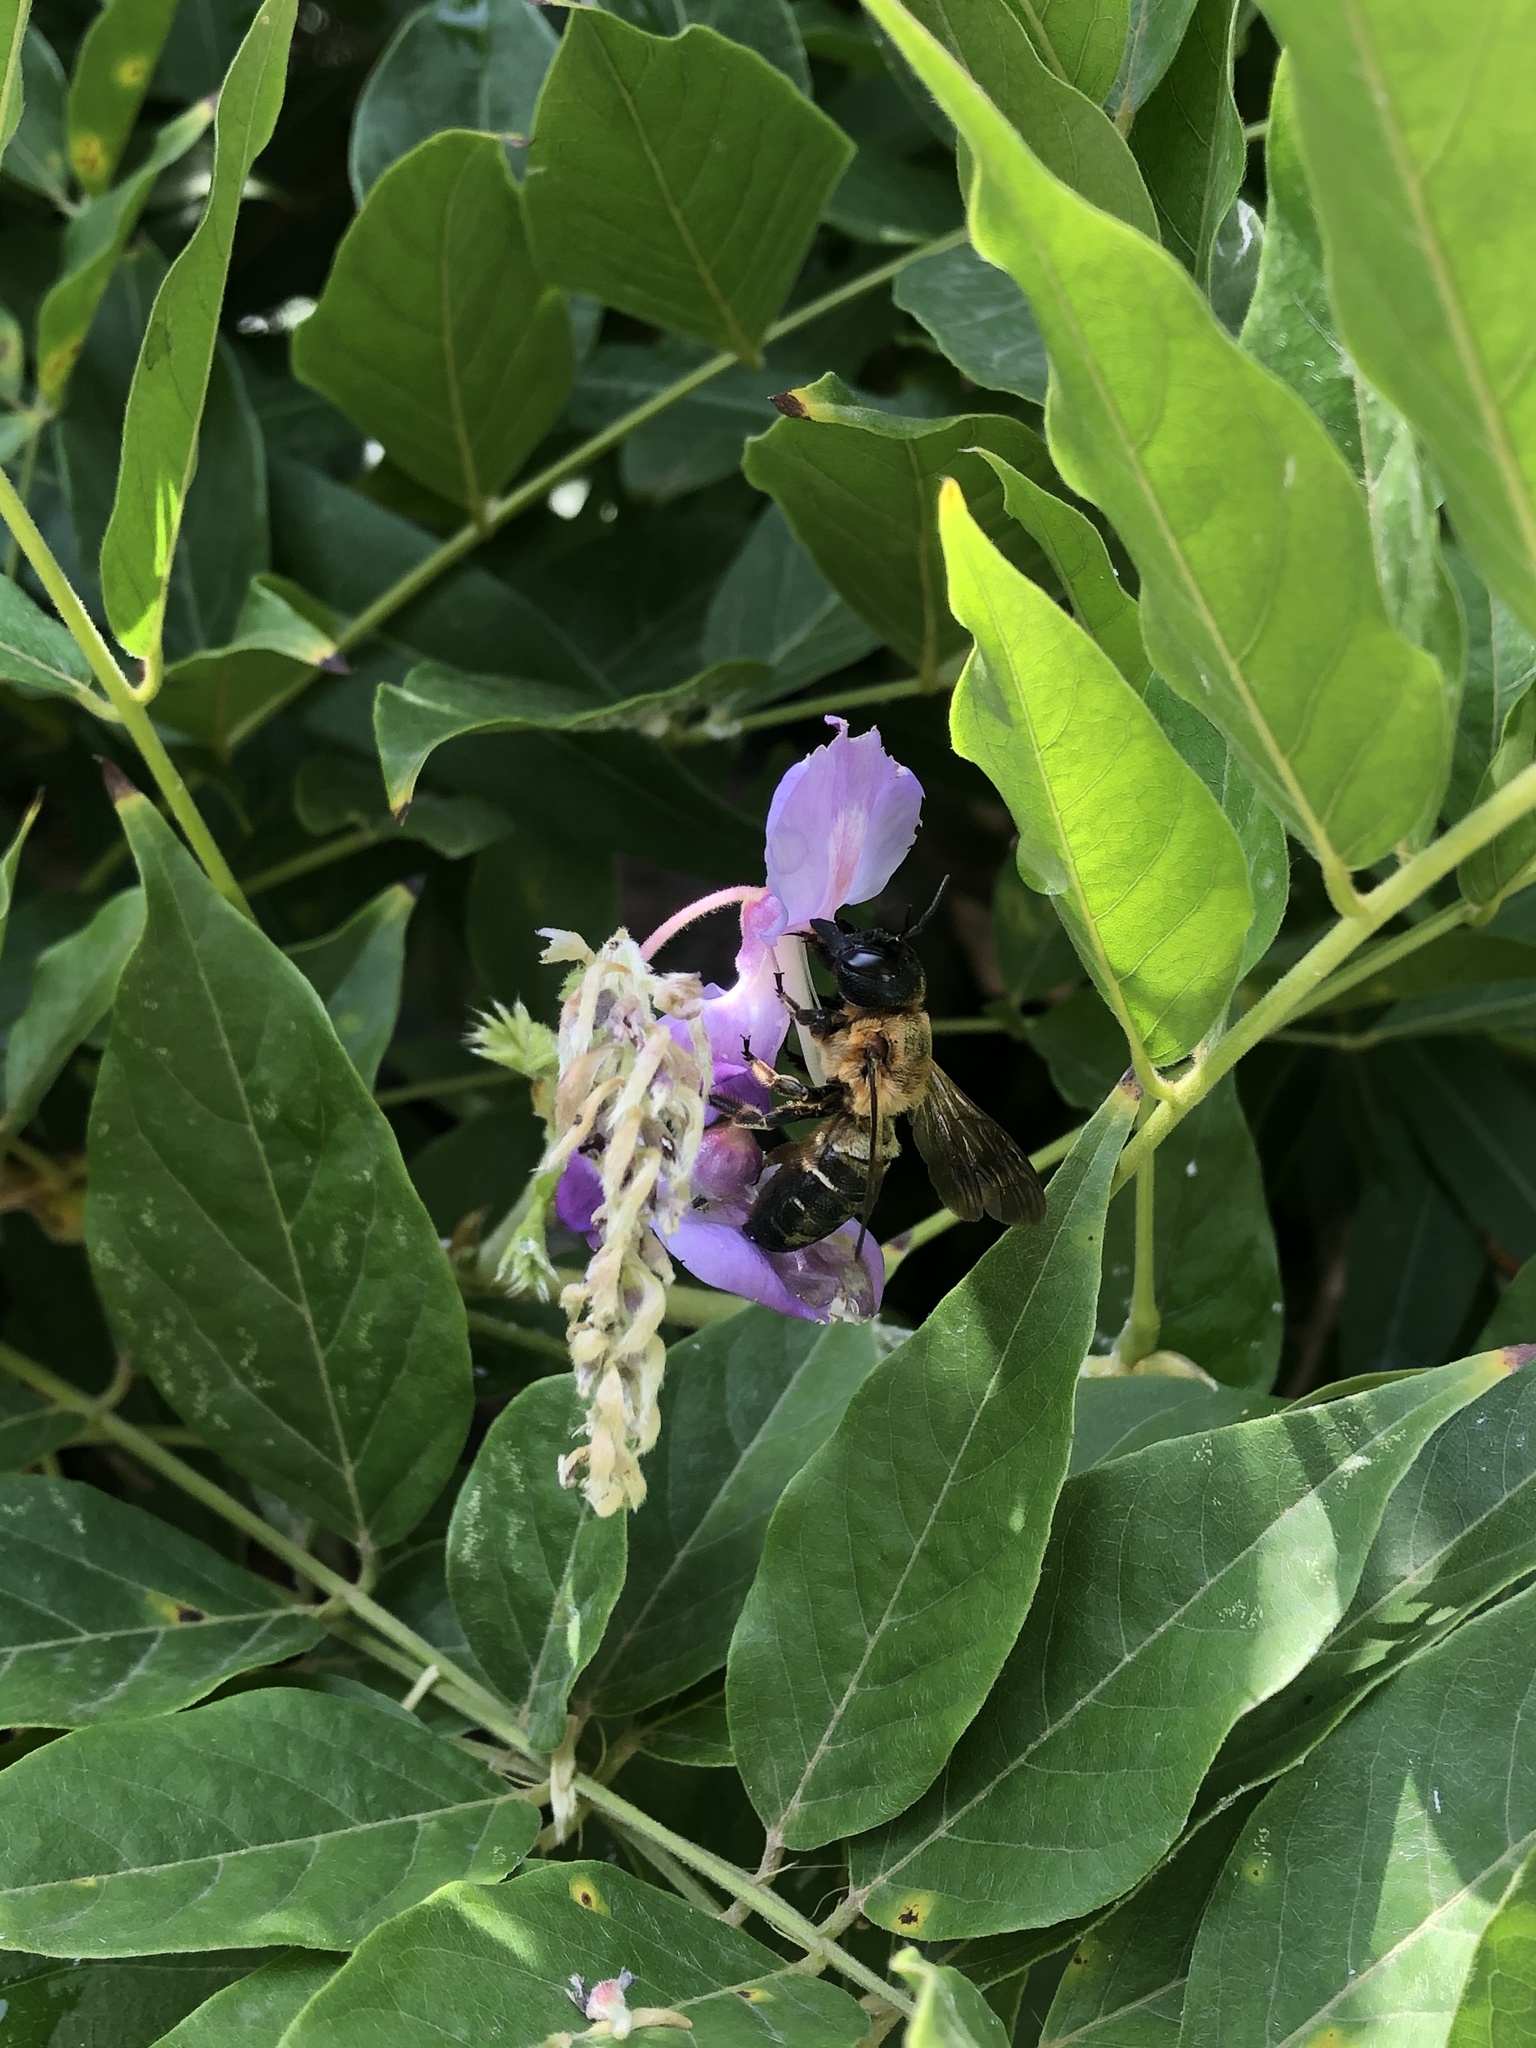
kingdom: Animalia
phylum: Arthropoda
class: Insecta
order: Hymenoptera
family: Megachilidae
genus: Megachile
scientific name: Megachile sculpturalis
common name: Sculptured resin bee
